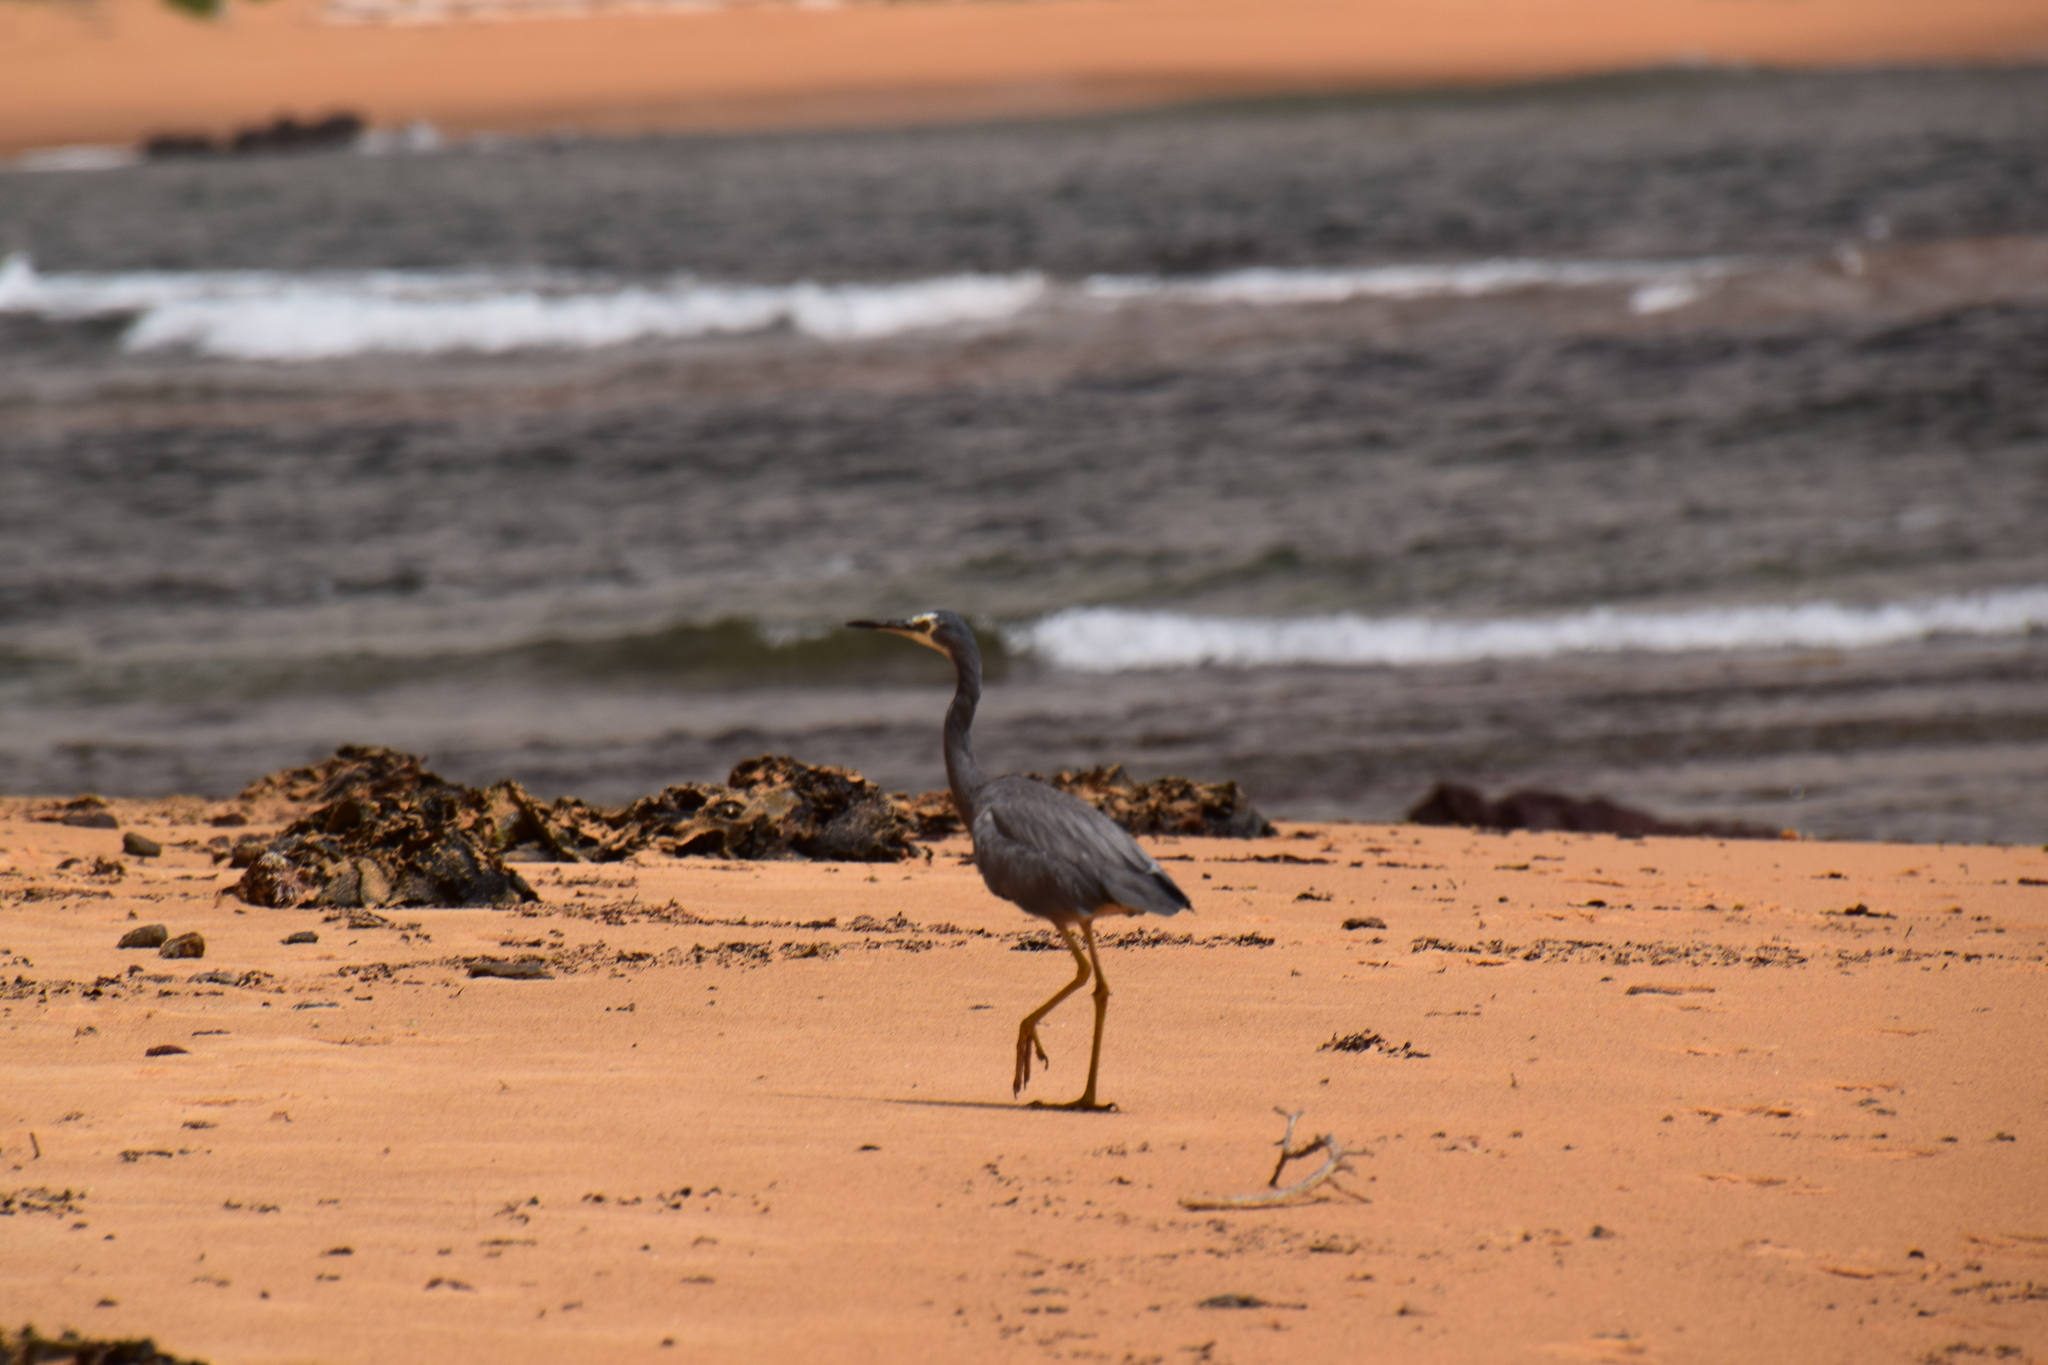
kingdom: Animalia
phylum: Chordata
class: Aves
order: Pelecaniformes
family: Ardeidae
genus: Egretta
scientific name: Egretta novaehollandiae
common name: White-faced heron
